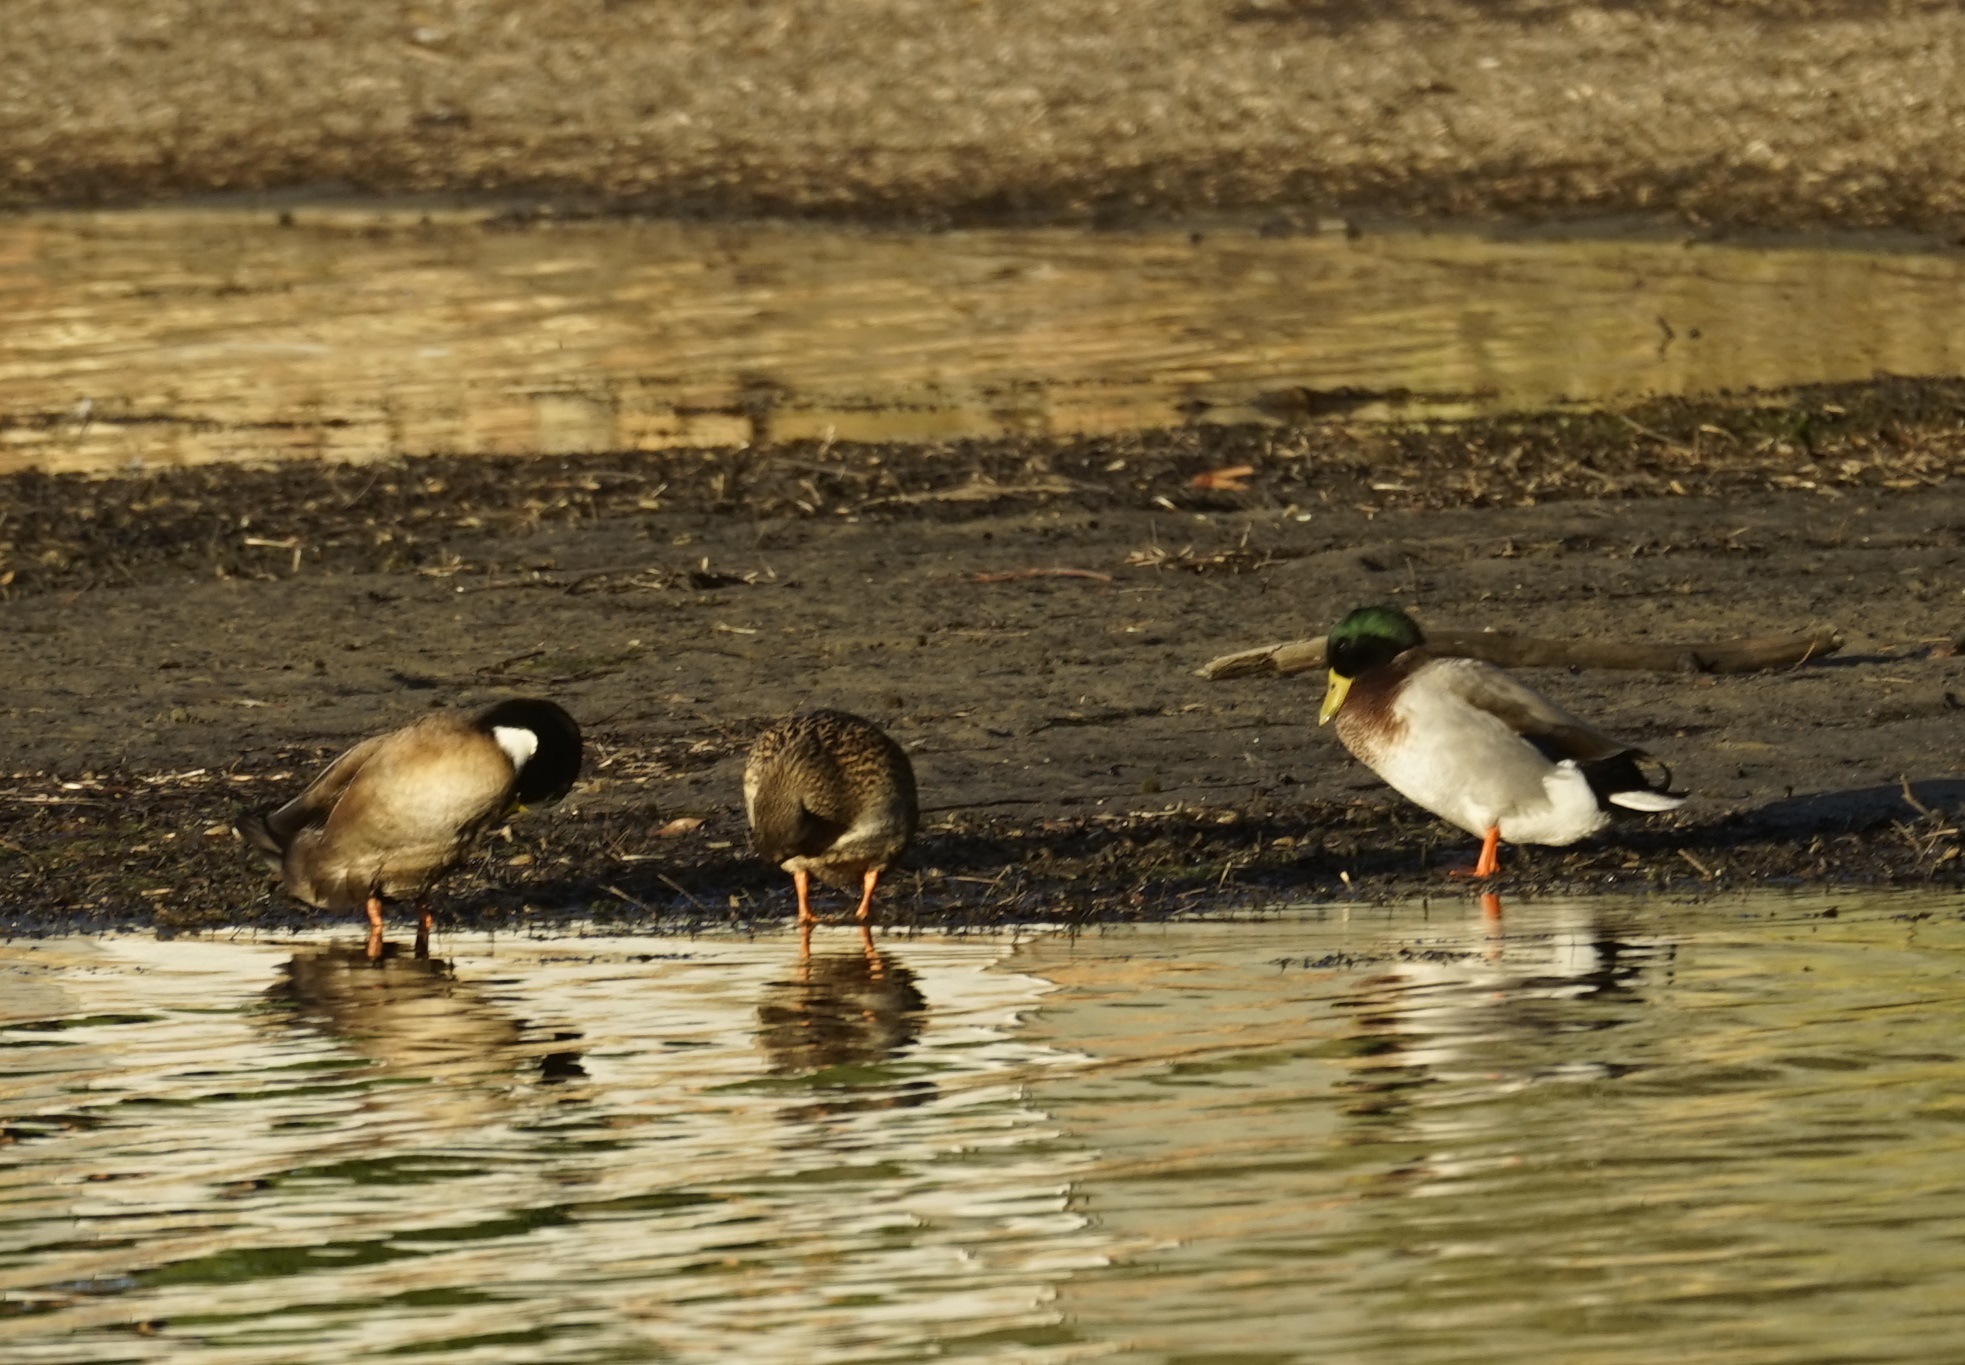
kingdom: Animalia
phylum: Chordata
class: Aves
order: Anseriformes
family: Anatidae
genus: Anas
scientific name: Anas platyrhynchos
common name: Mallard
